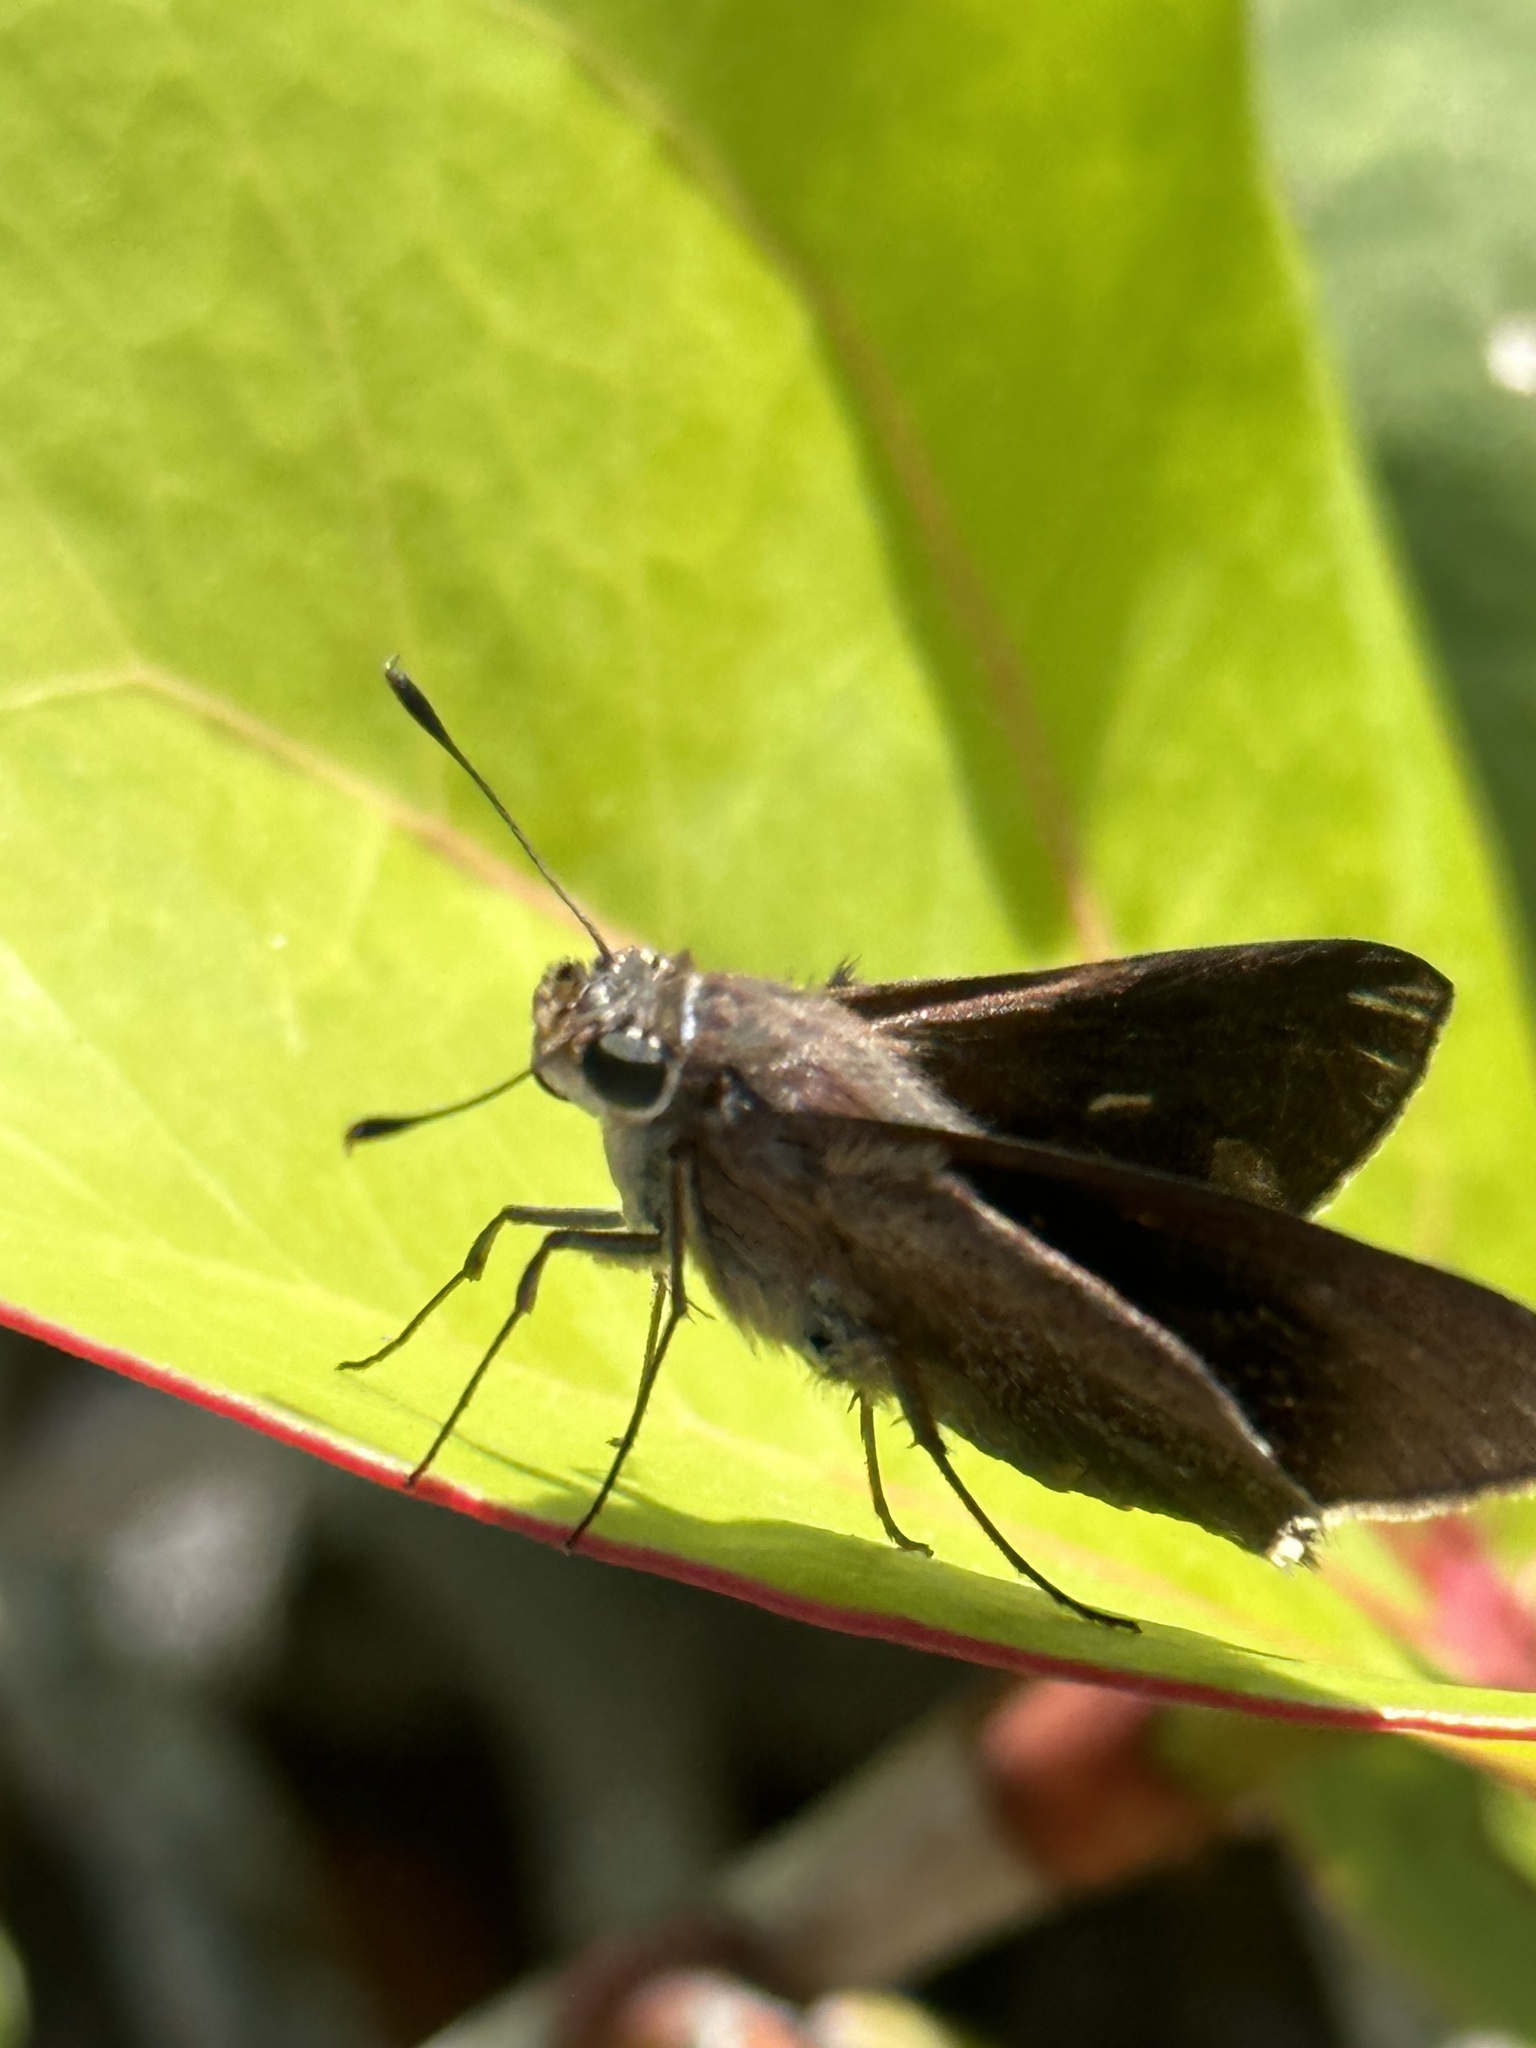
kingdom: Animalia
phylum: Arthropoda
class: Insecta
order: Lepidoptera
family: Hesperiidae
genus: Asbolis
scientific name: Asbolis capucinus
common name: Monk skipper
